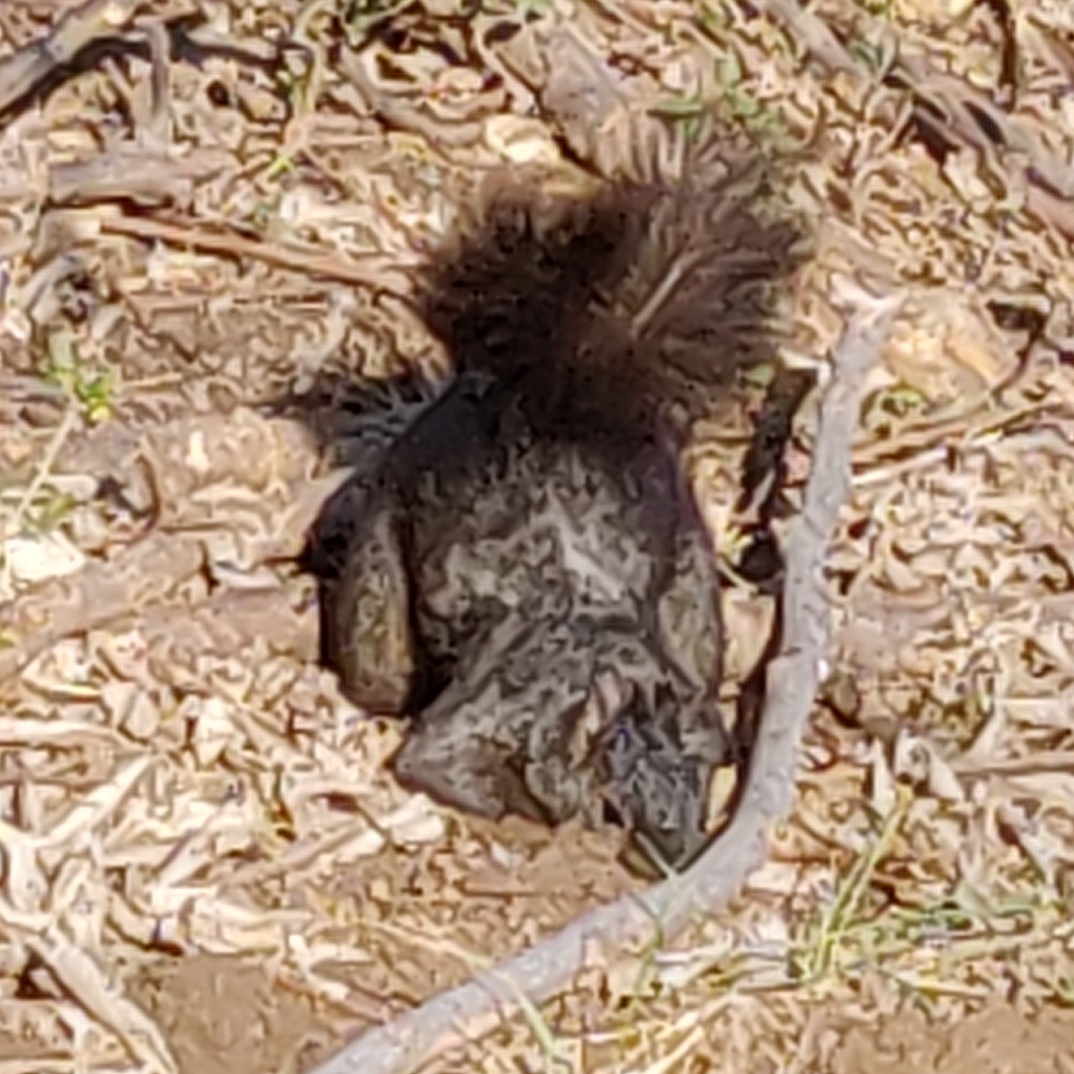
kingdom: Animalia
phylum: Chordata
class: Mammalia
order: Rodentia
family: Sciuridae
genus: Sciurus
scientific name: Sciurus carolinensis
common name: Eastern gray squirrel
